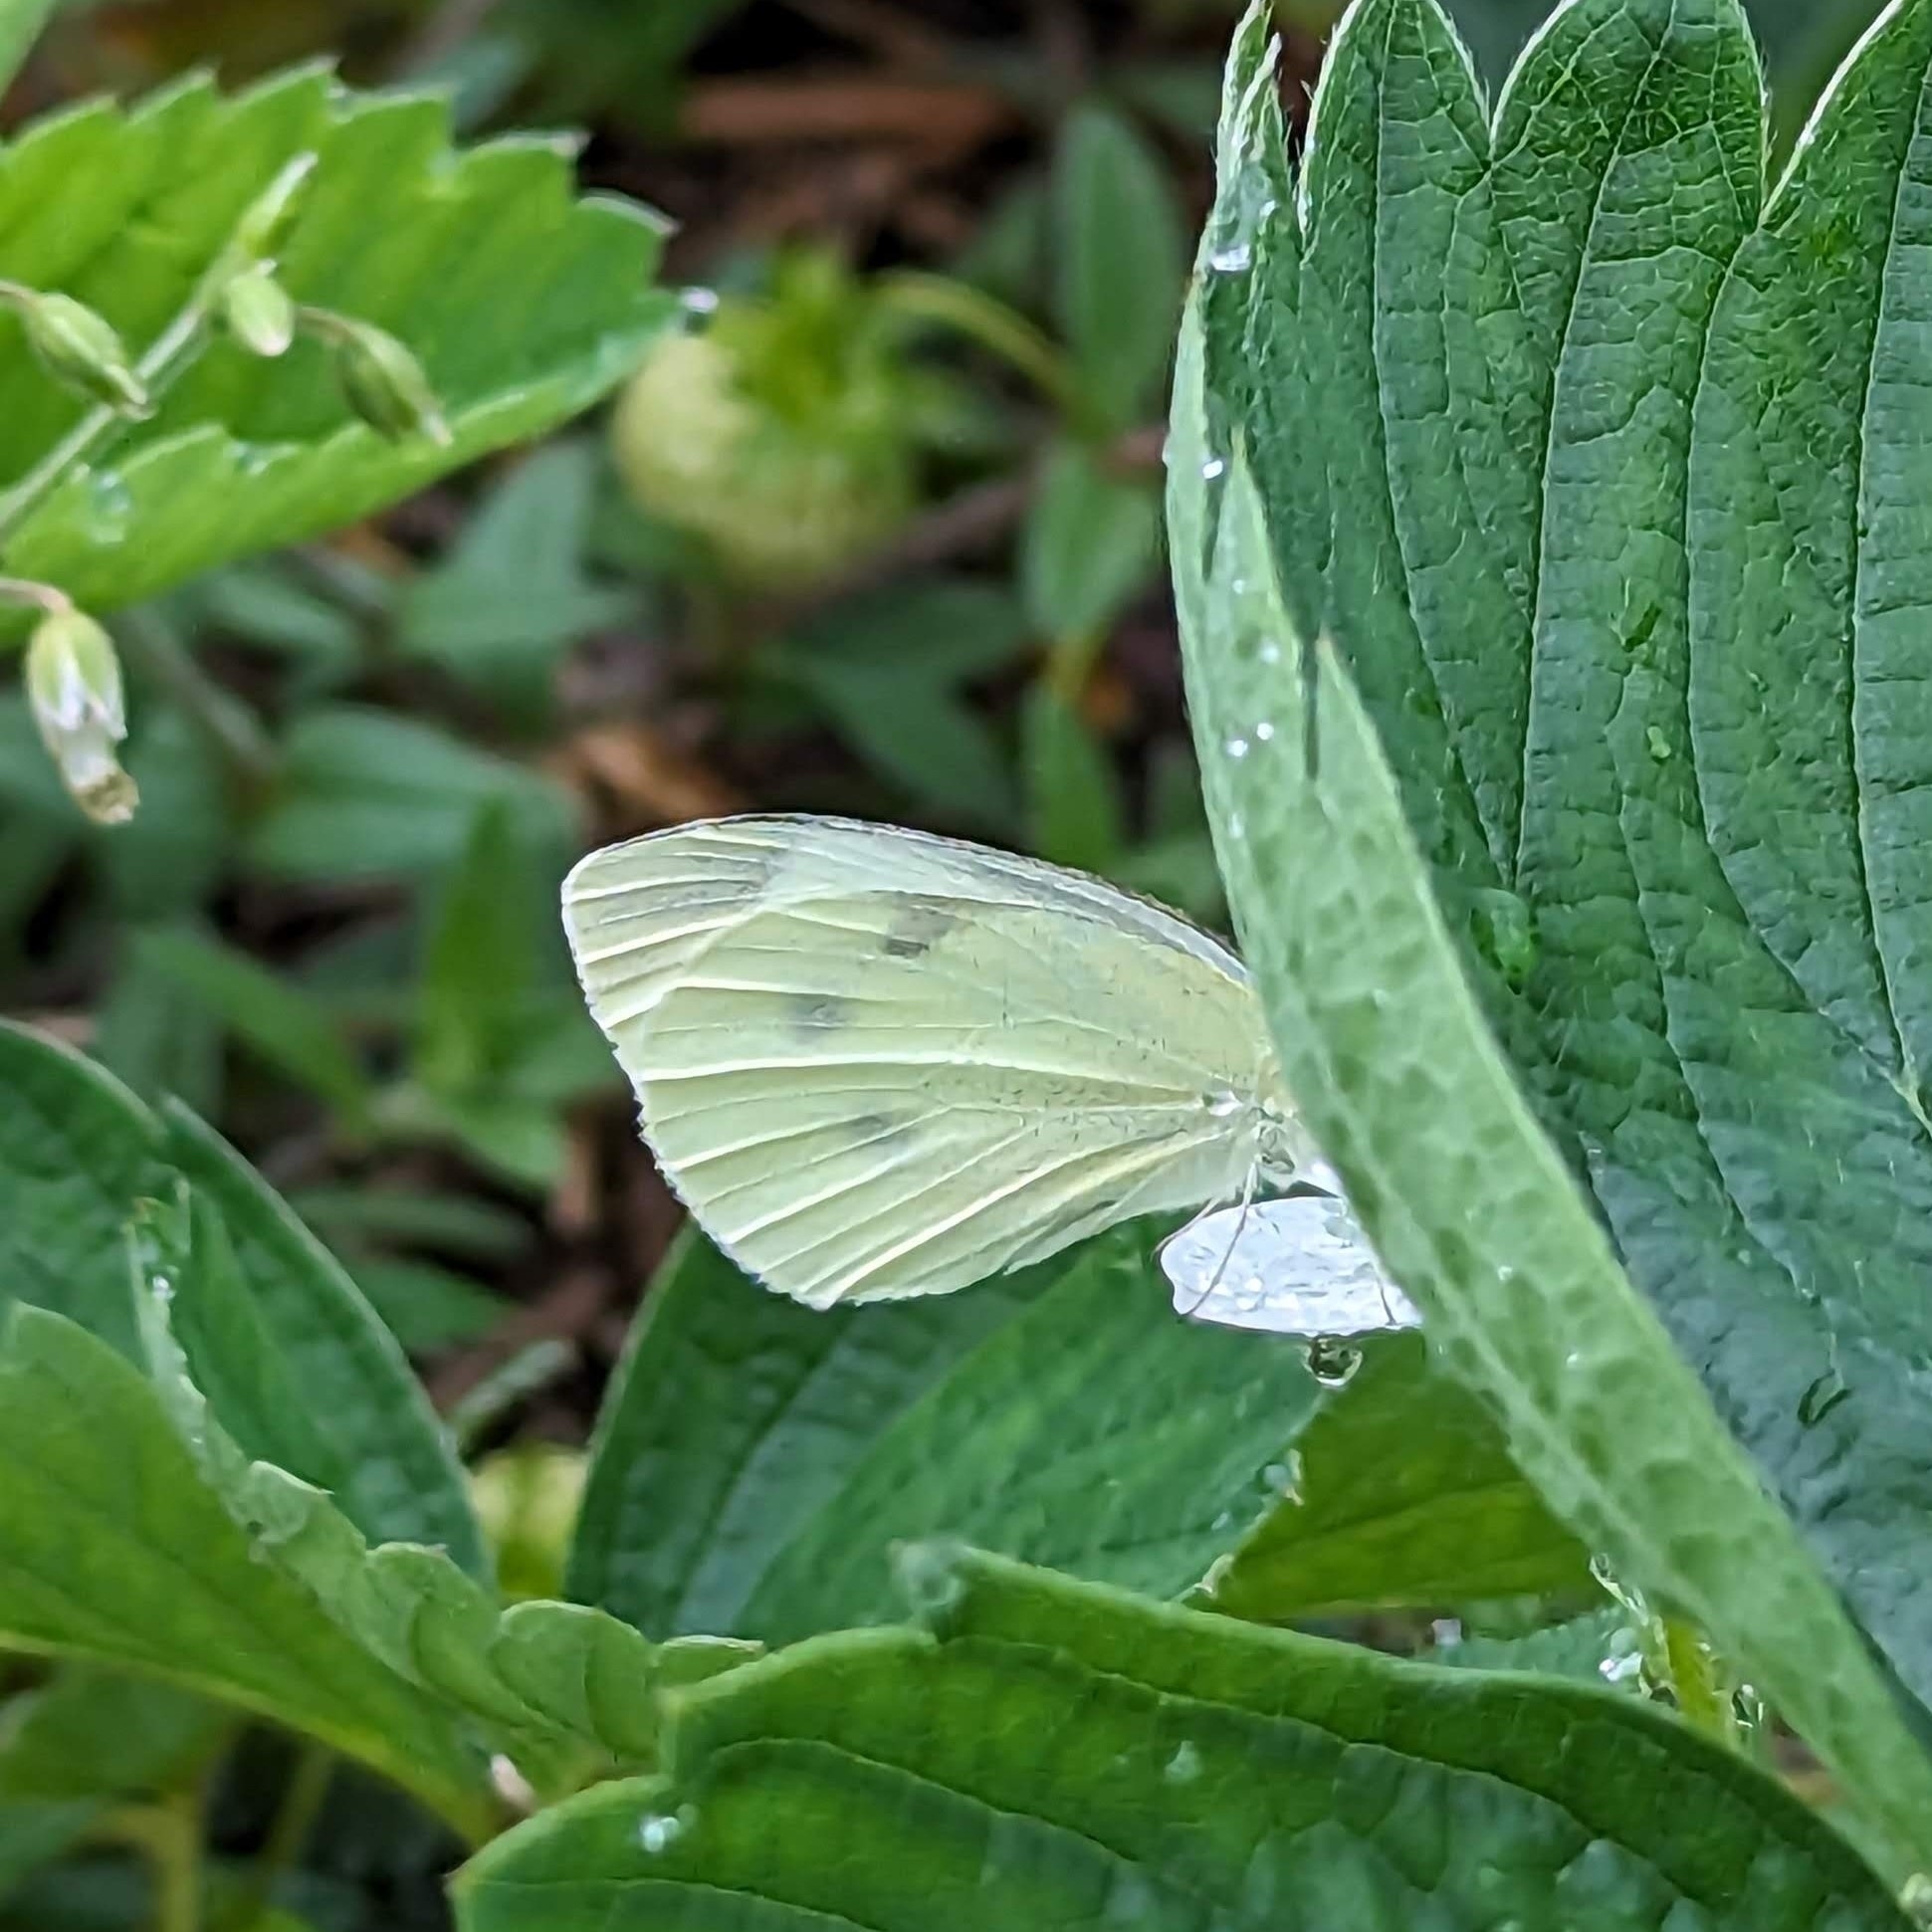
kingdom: Animalia
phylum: Arthropoda
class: Insecta
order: Lepidoptera
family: Pieridae
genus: Pieris
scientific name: Pieris rapae
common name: Small white
